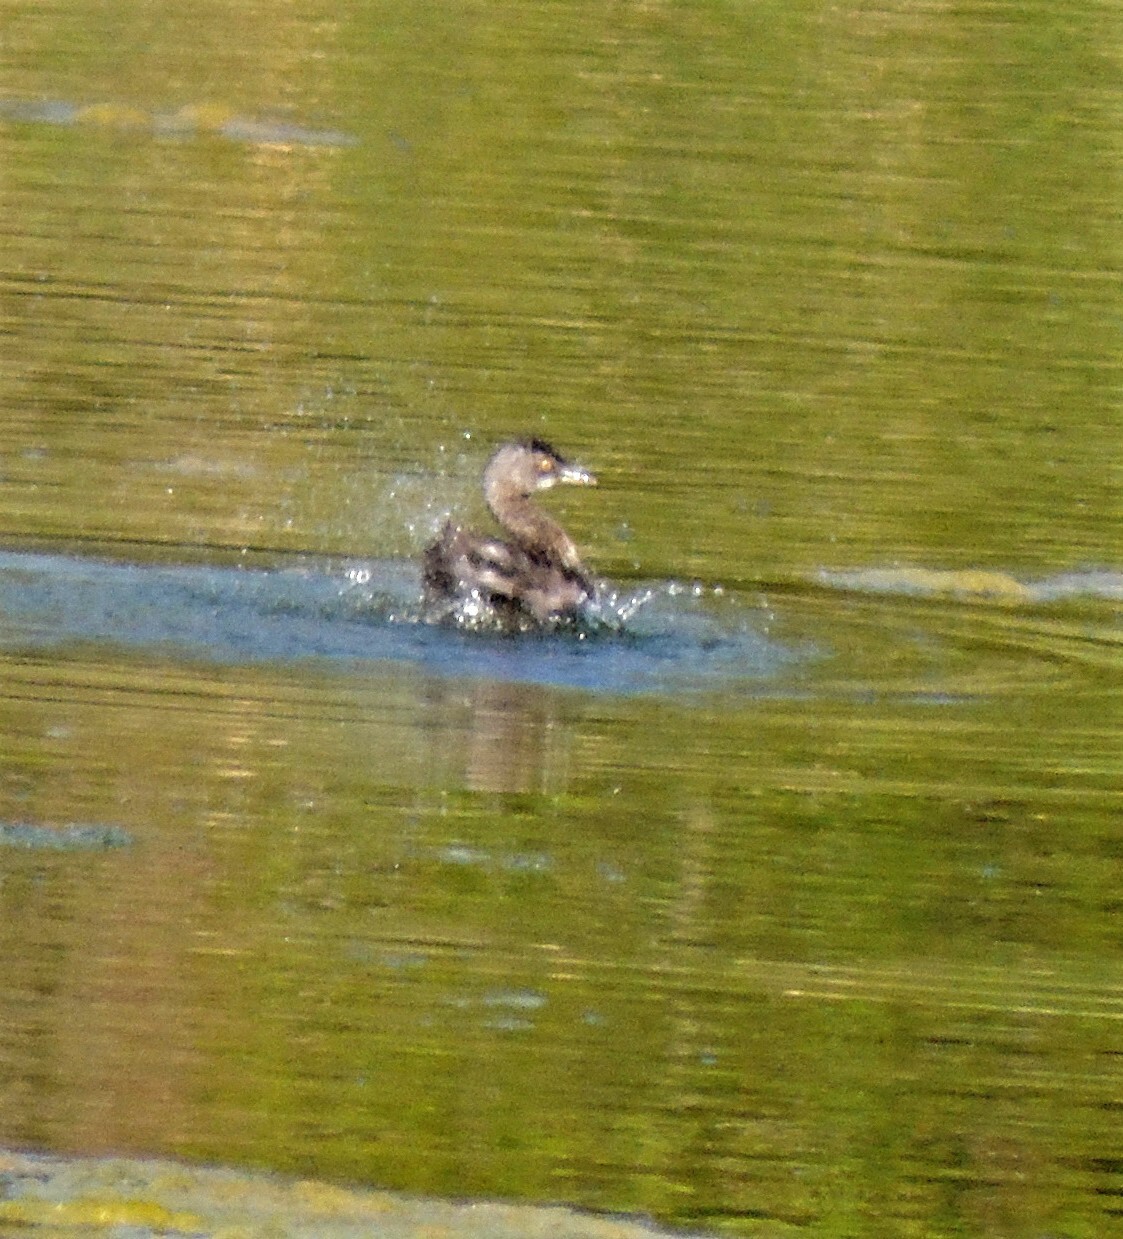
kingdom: Animalia
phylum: Chordata
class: Aves
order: Podicipediformes
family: Podicipedidae
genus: Tachybaptus
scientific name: Tachybaptus dominicus
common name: Least grebe
